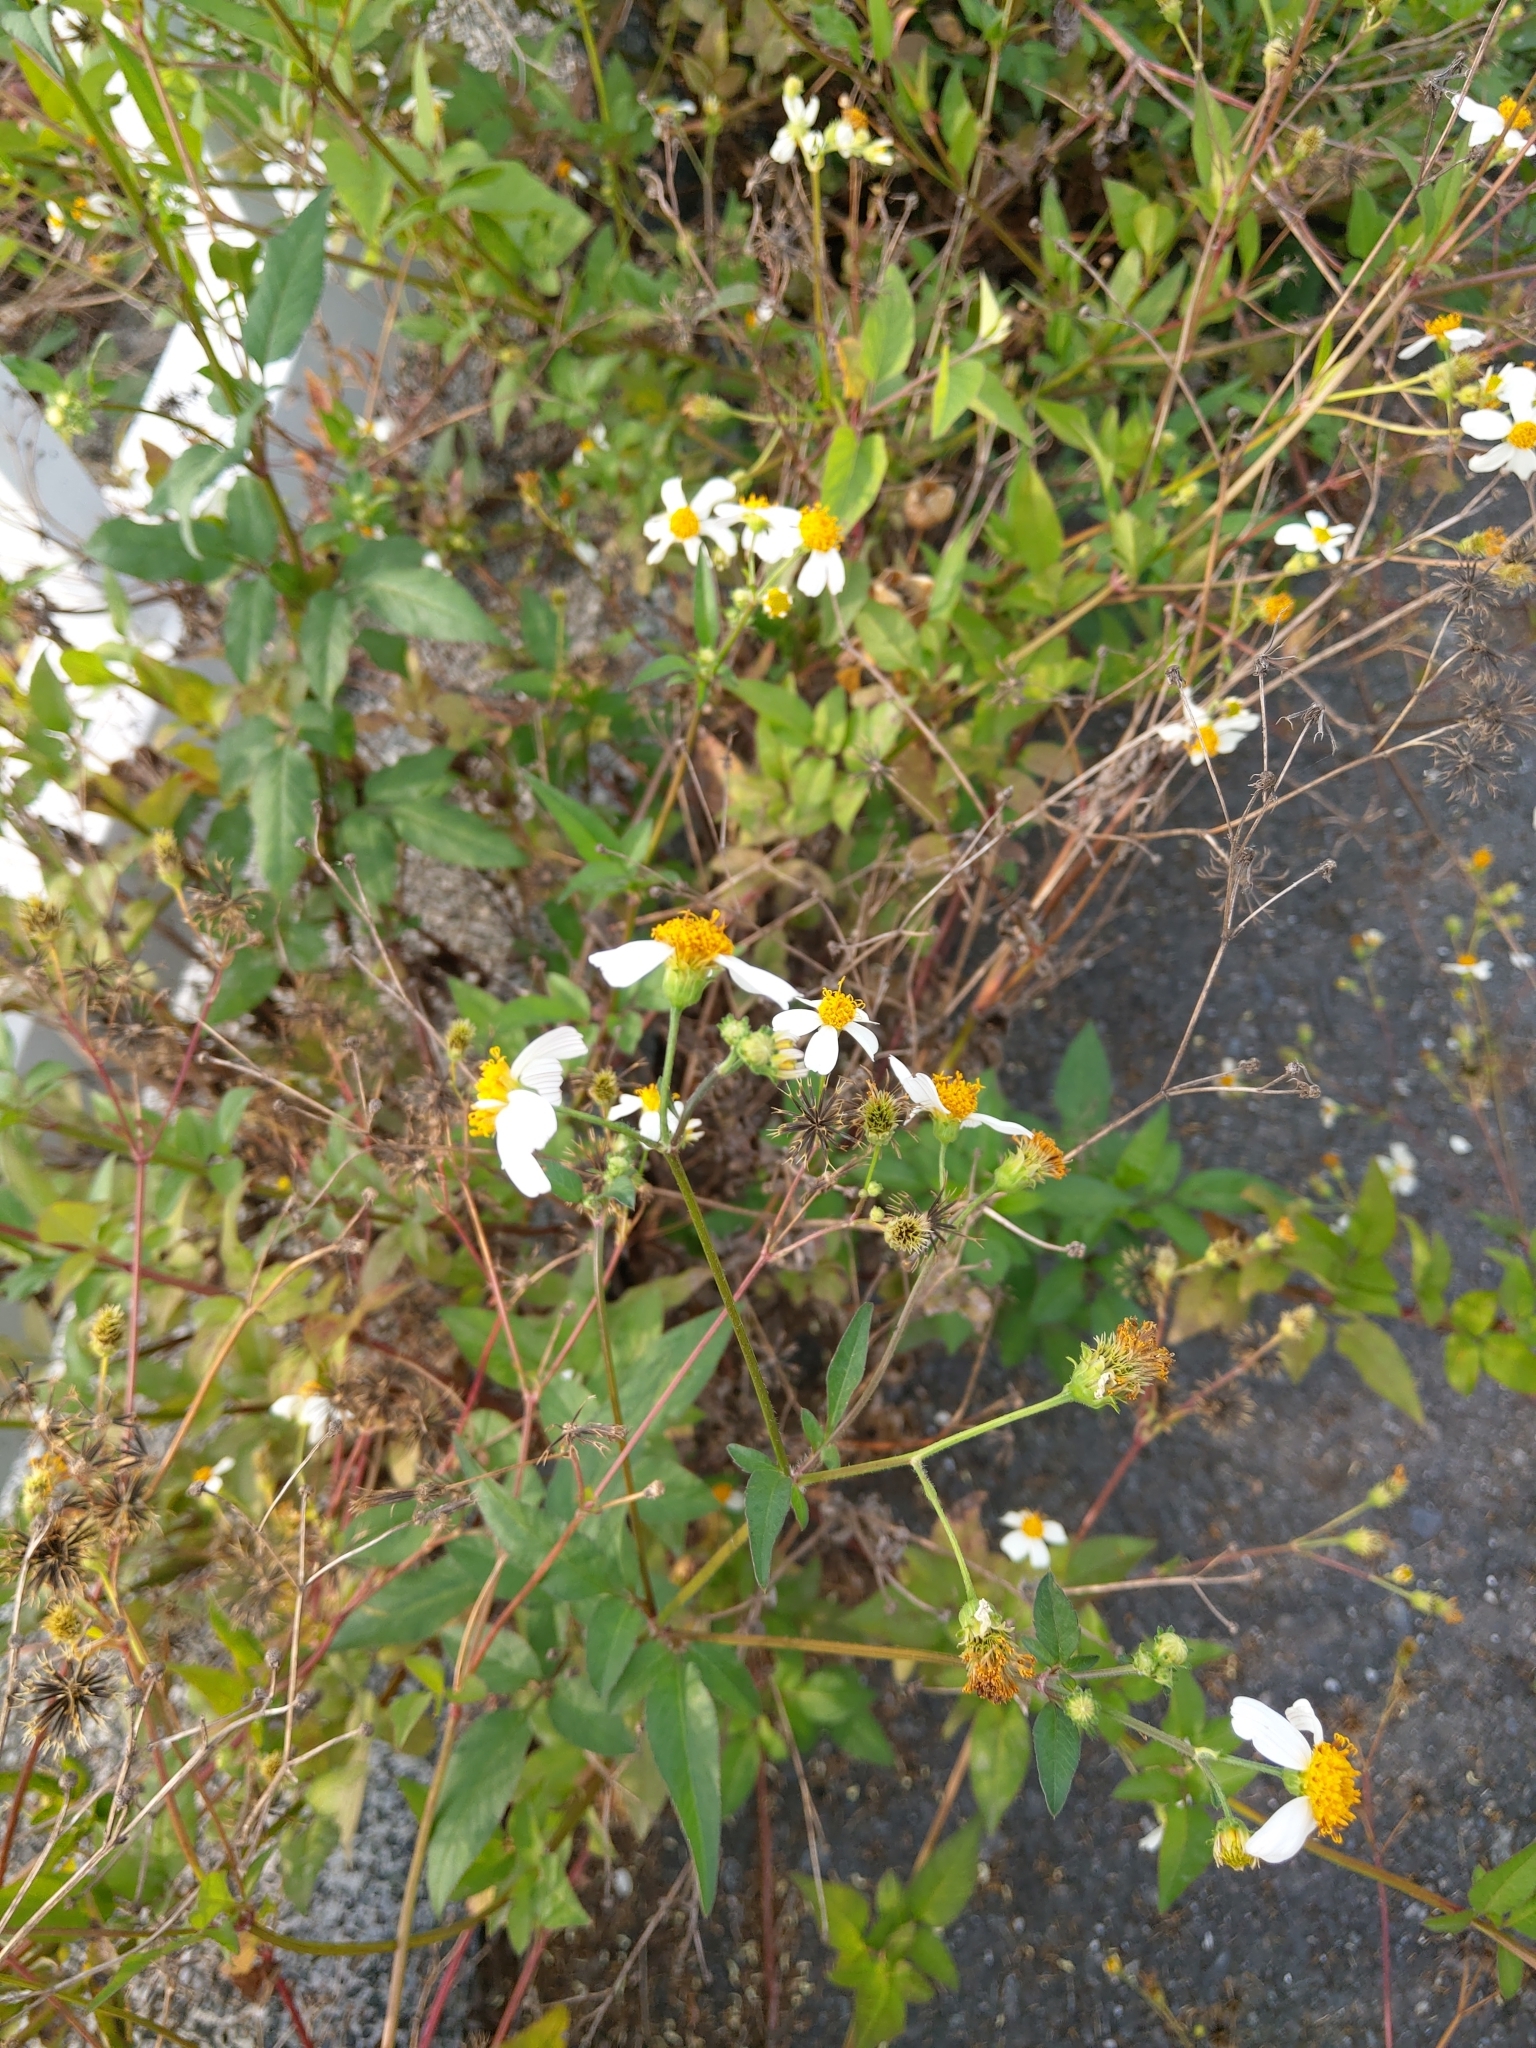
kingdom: Plantae
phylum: Tracheophyta
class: Magnoliopsida
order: Asterales
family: Asteraceae
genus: Bidens
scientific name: Bidens alba
